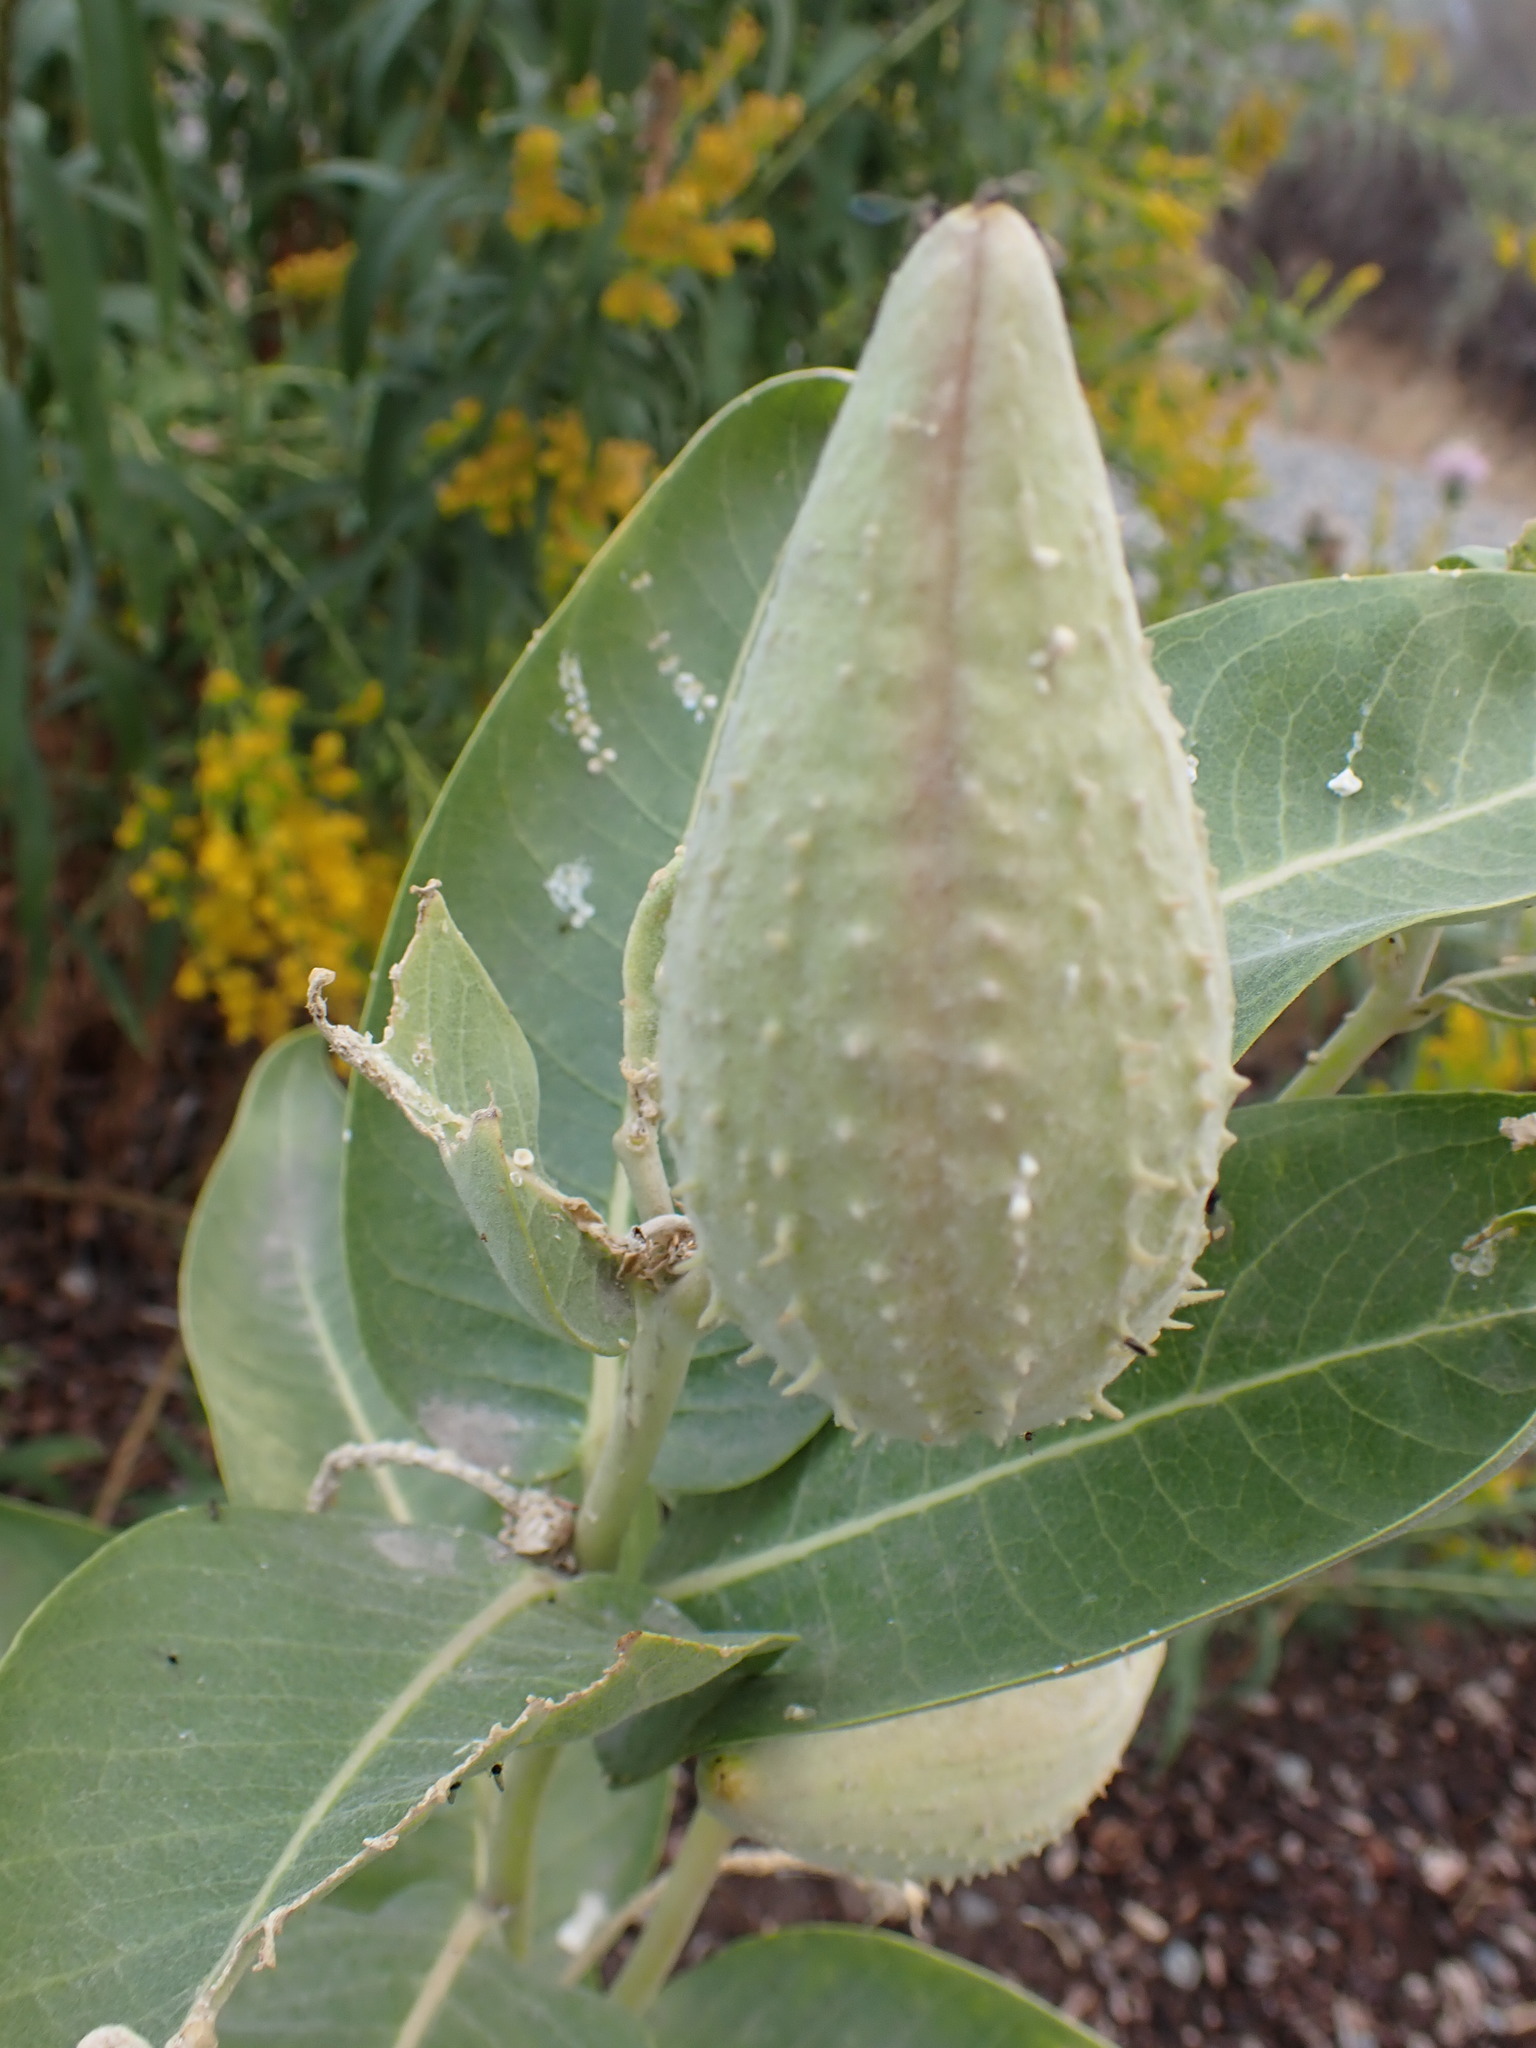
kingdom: Plantae
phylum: Tracheophyta
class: Magnoliopsida
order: Gentianales
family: Apocynaceae
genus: Asclepias
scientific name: Asclepias speciosa
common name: Showy milkweed
